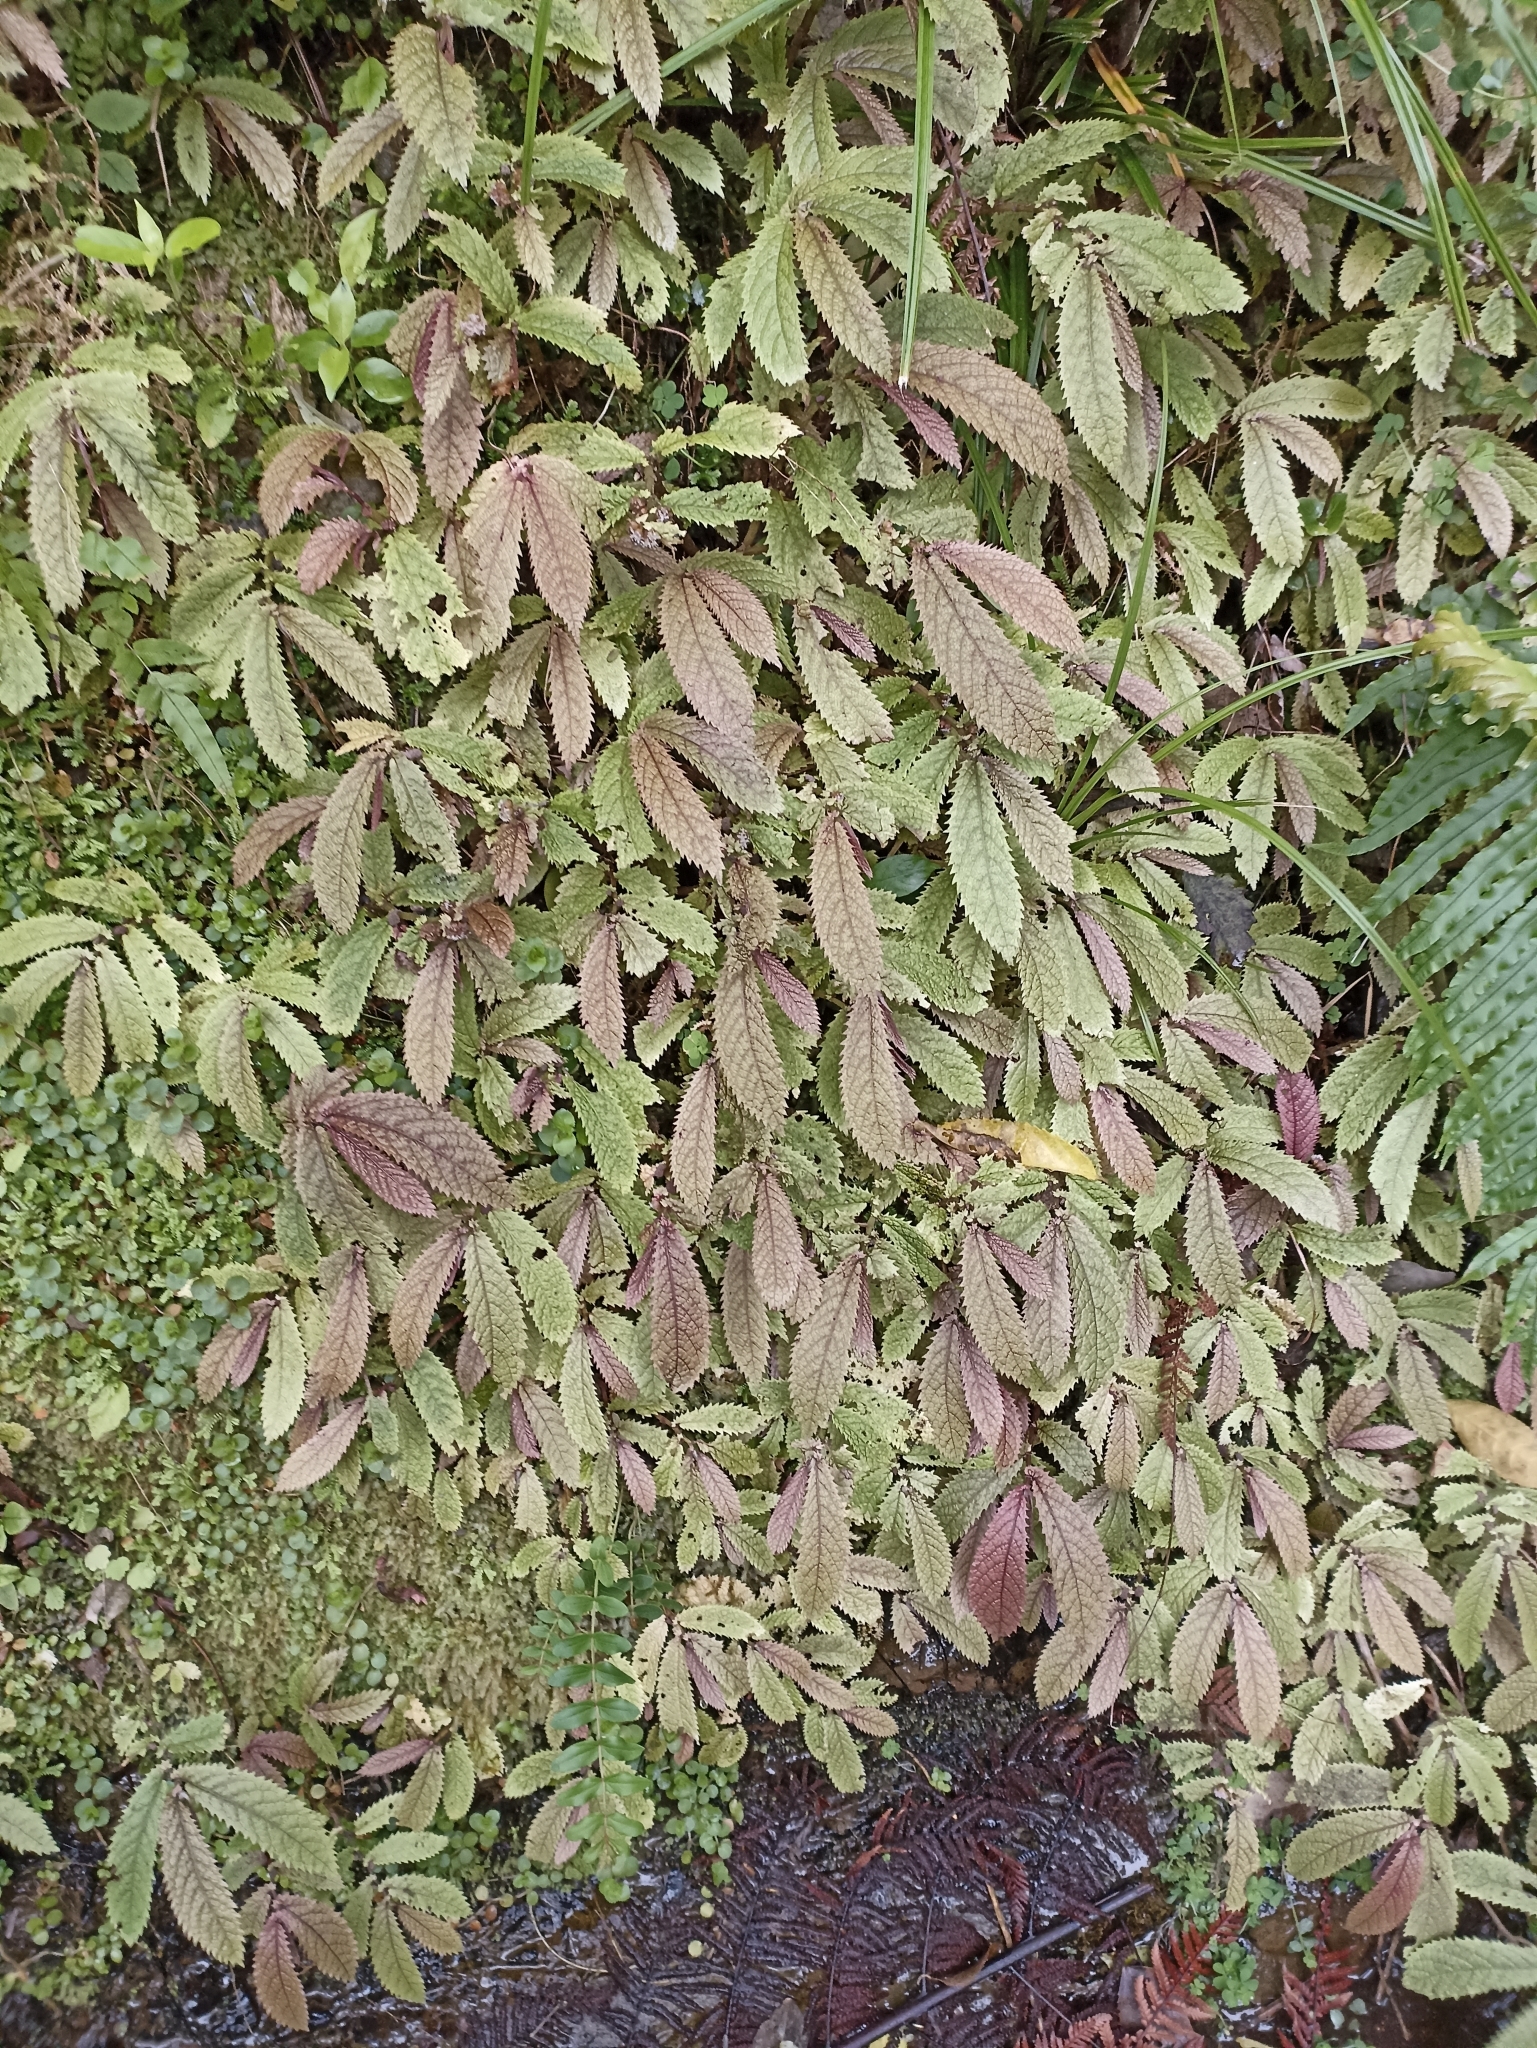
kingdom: Plantae
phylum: Tracheophyta
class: Magnoliopsida
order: Rosales
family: Urticaceae
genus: Elatostema
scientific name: Elatostema rugosum
